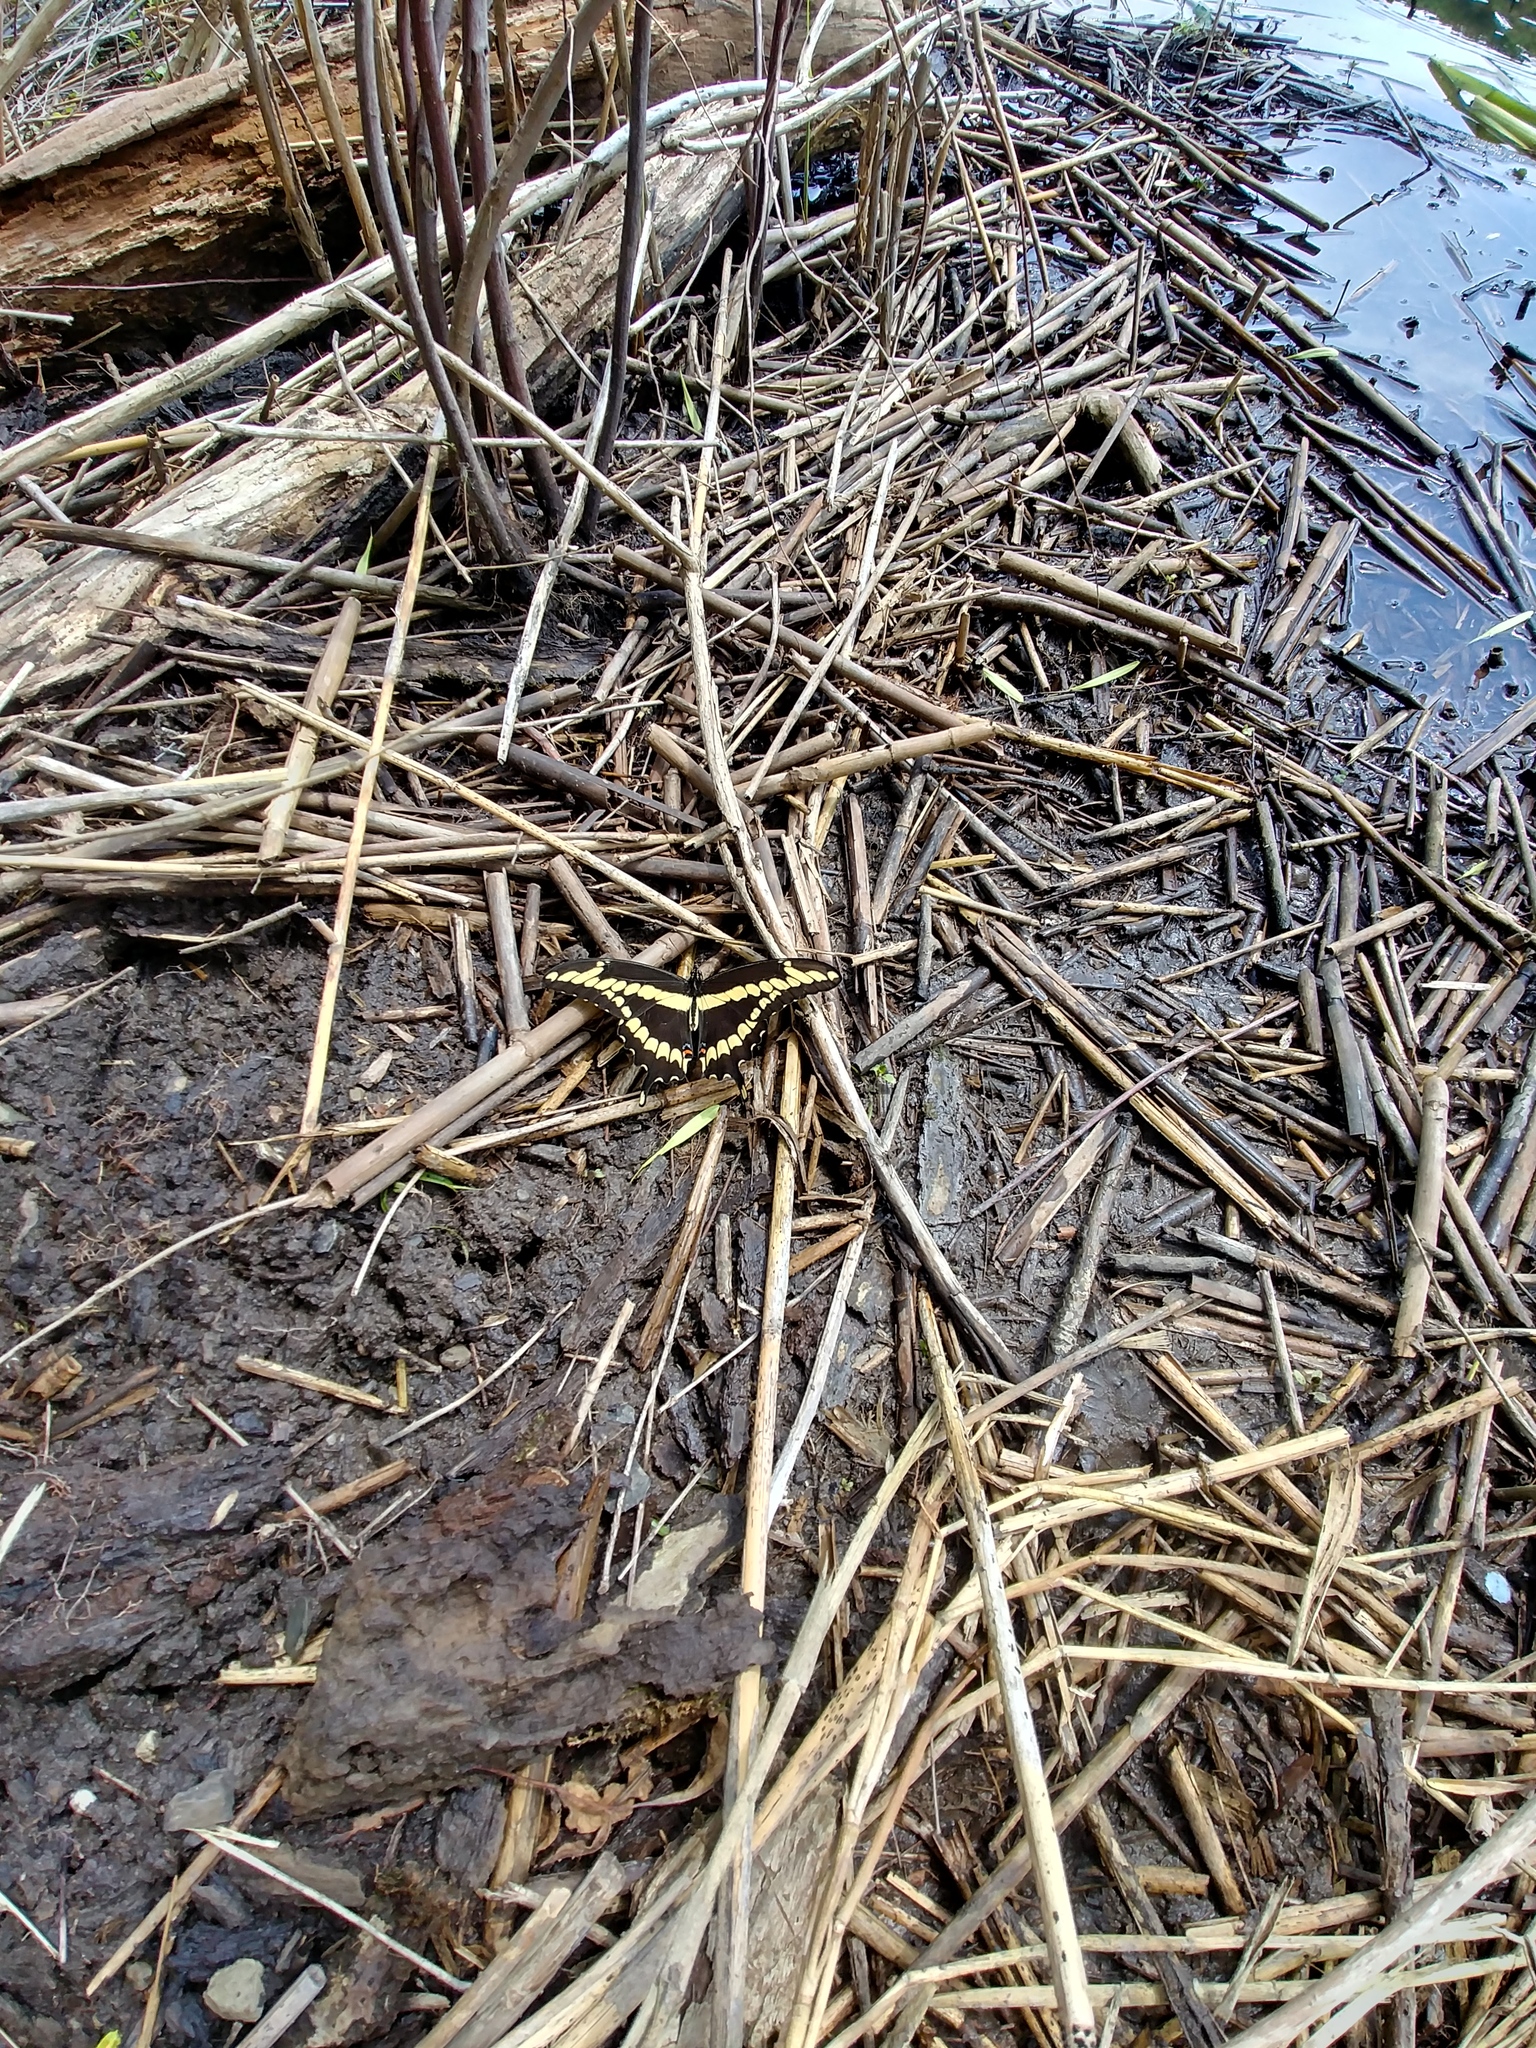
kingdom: Animalia
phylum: Arthropoda
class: Insecta
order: Lepidoptera
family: Papilionidae
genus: Papilio
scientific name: Papilio cresphontes
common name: Giant swallowtail
